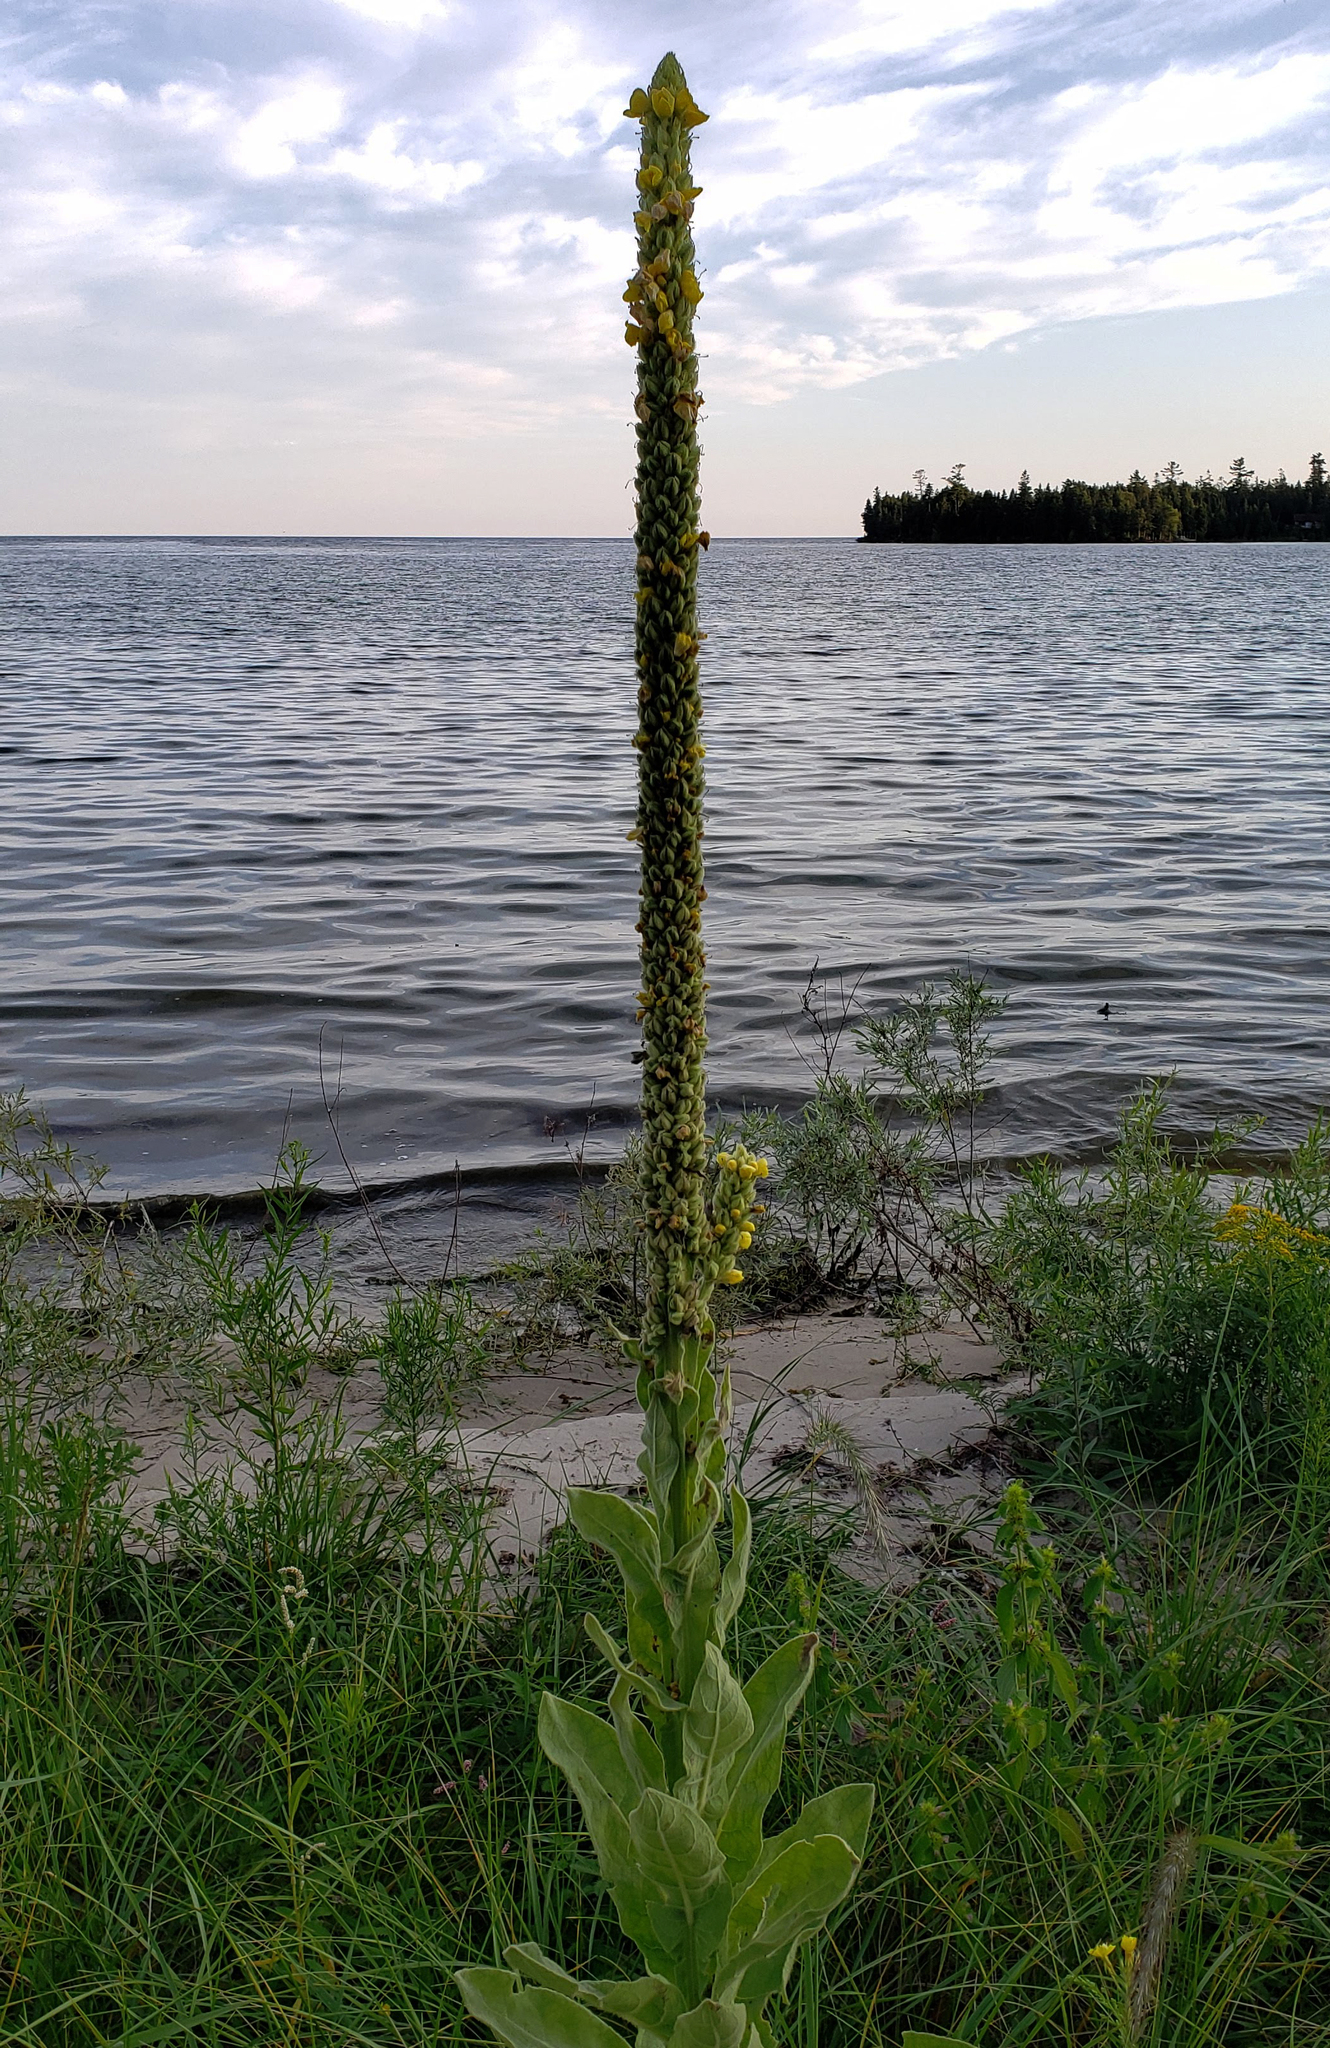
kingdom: Plantae
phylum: Tracheophyta
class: Magnoliopsida
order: Lamiales
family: Scrophulariaceae
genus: Verbascum
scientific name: Verbascum thapsus
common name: Common mullein
